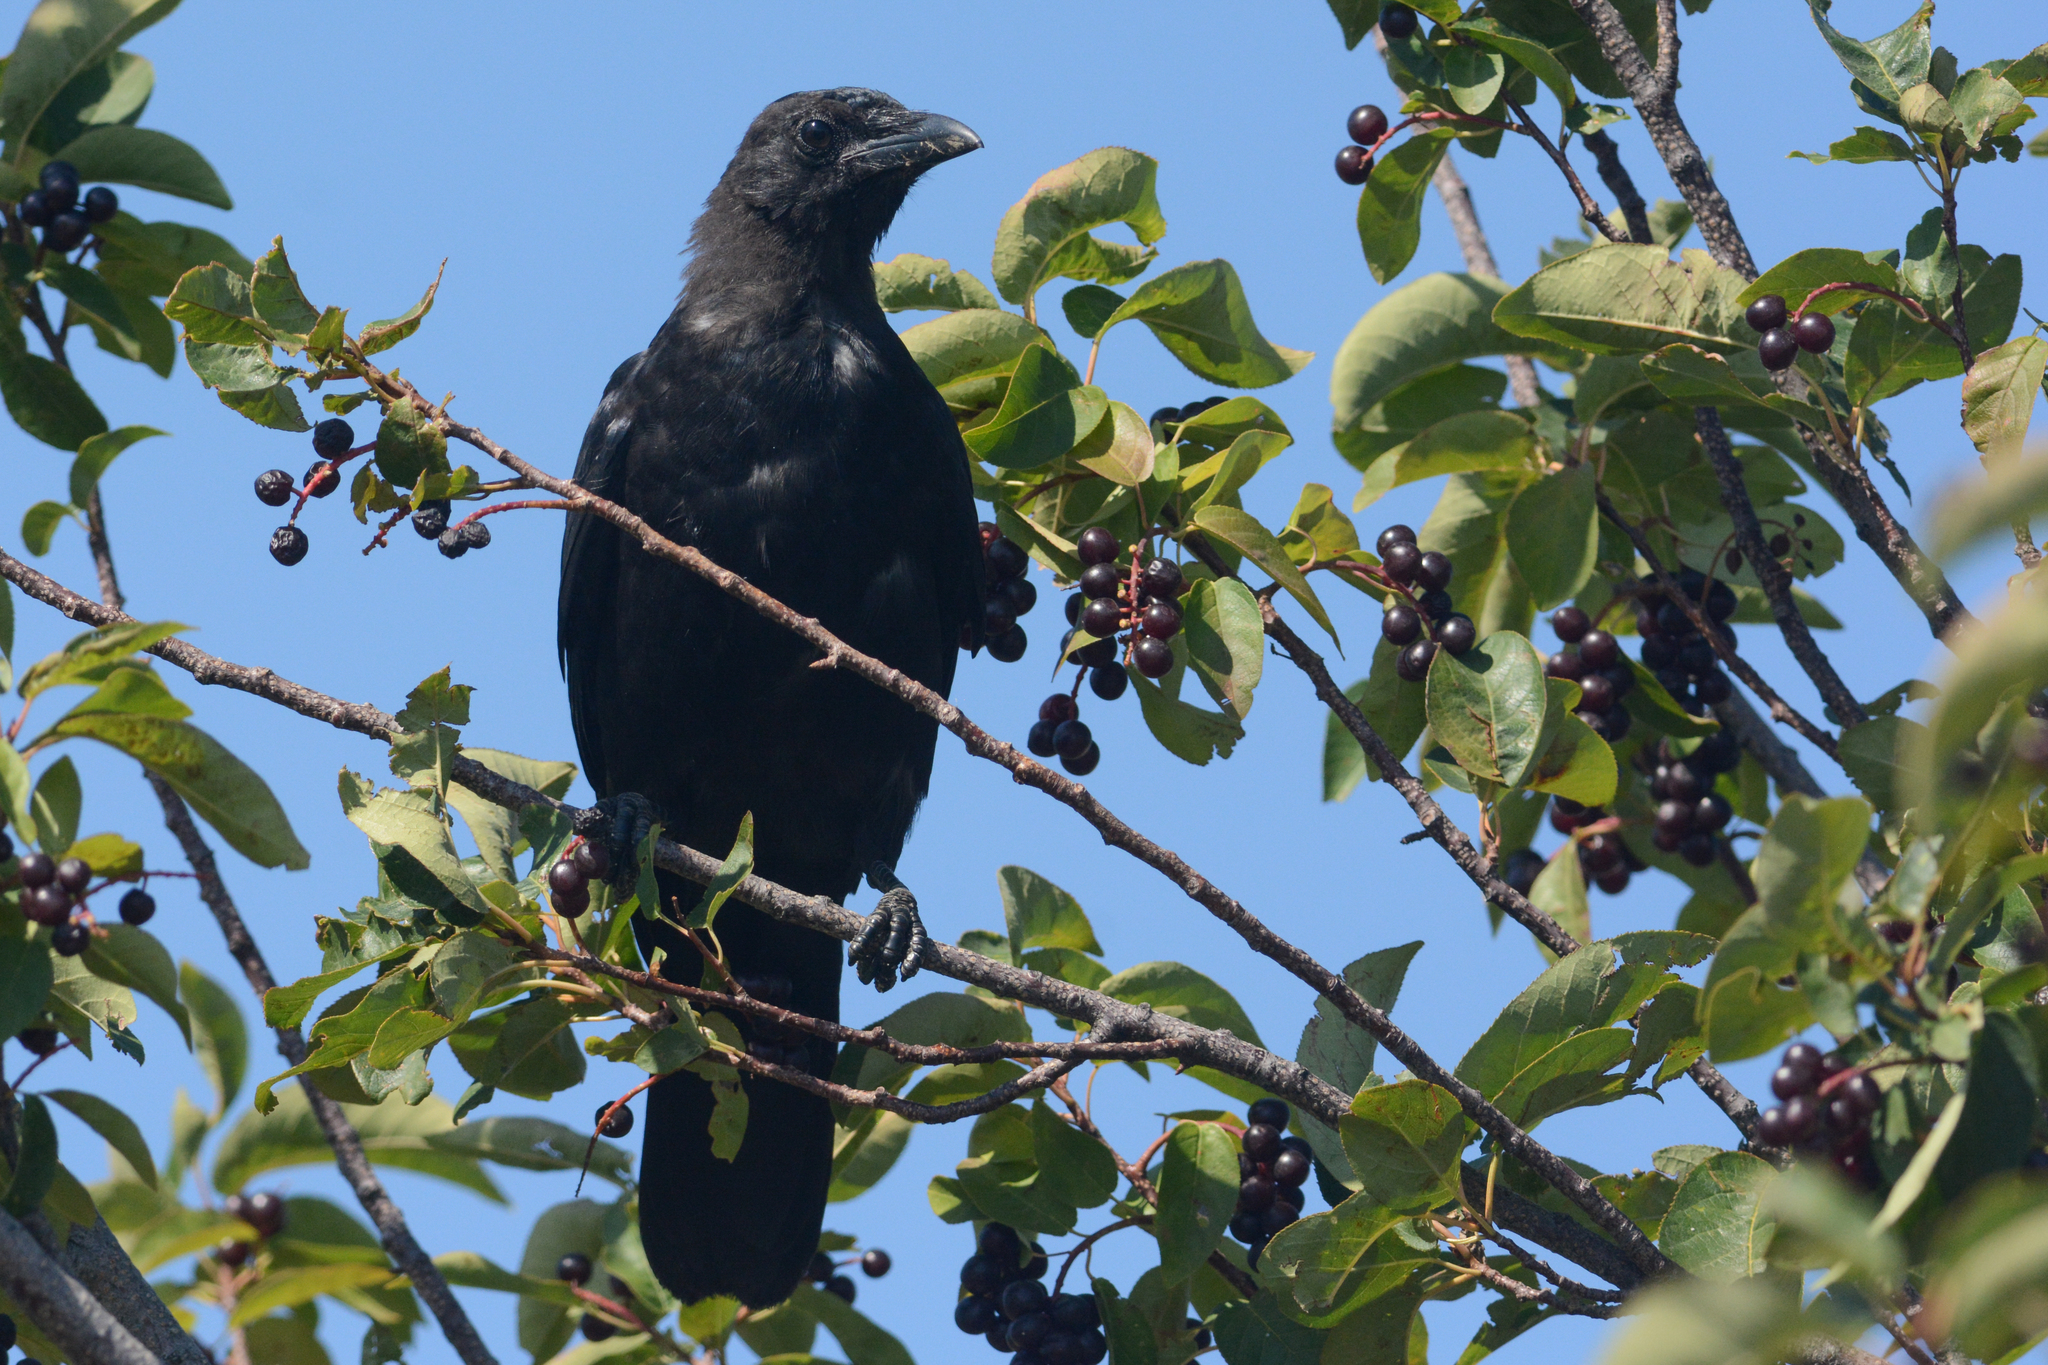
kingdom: Animalia
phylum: Chordata
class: Aves
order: Passeriformes
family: Corvidae
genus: Corvus
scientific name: Corvus brachyrhynchos
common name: American crow
